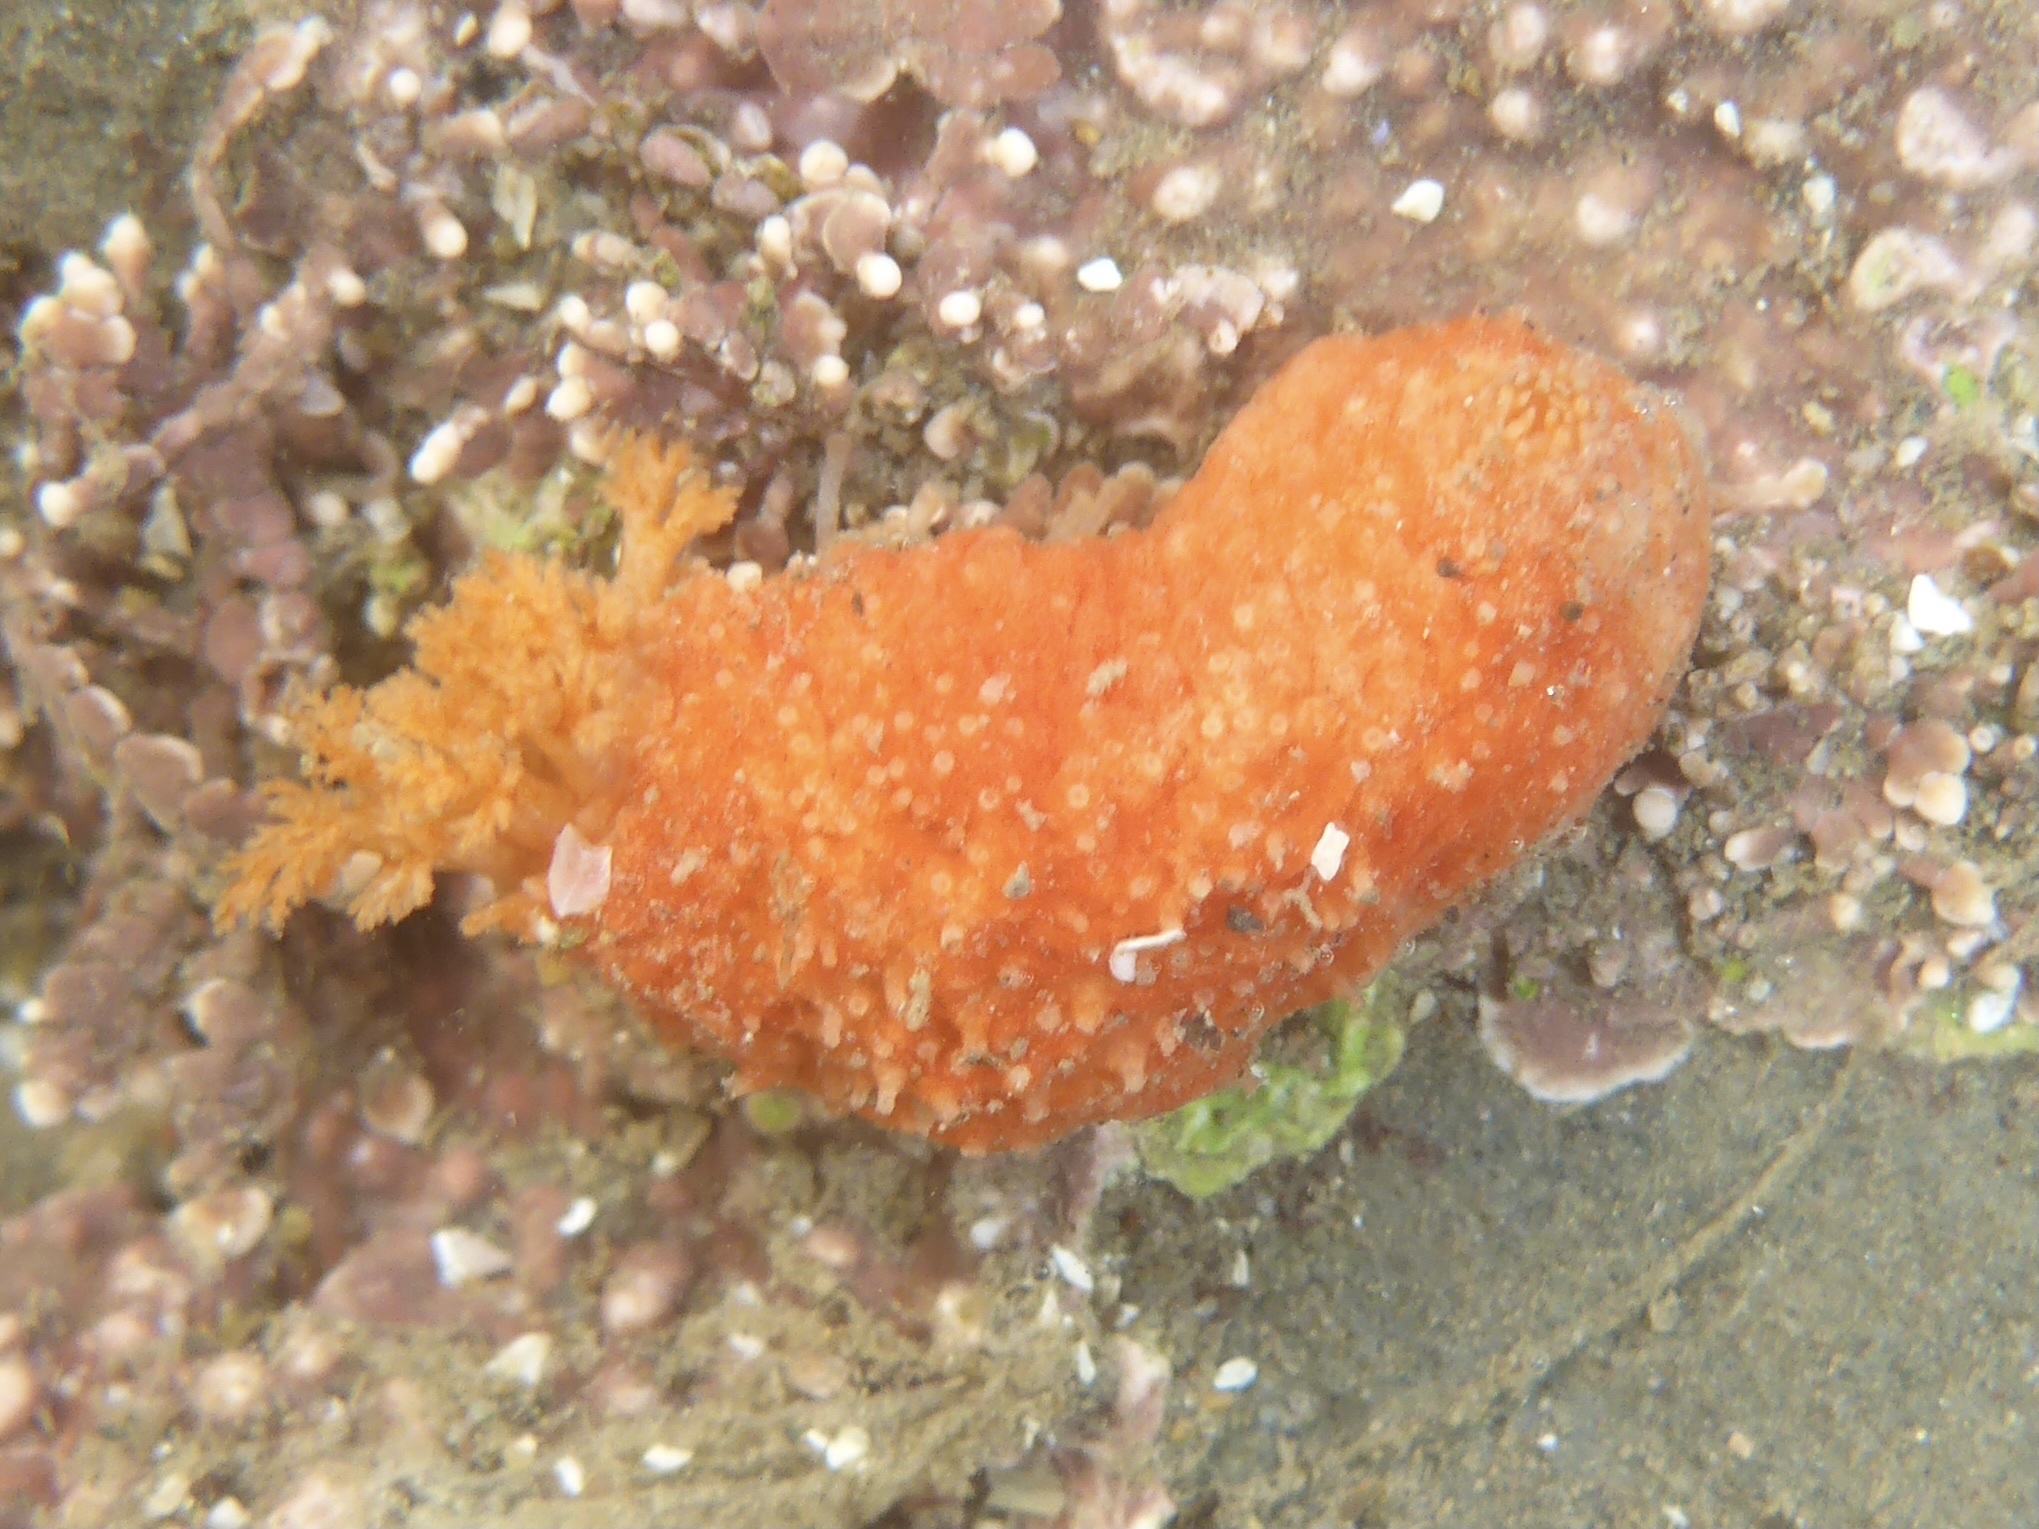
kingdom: Animalia
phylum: Echinodermata
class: Holothuroidea
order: Dendrochirotida
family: Psolidae
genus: Lissothuria
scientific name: Lissothuria nutriens
